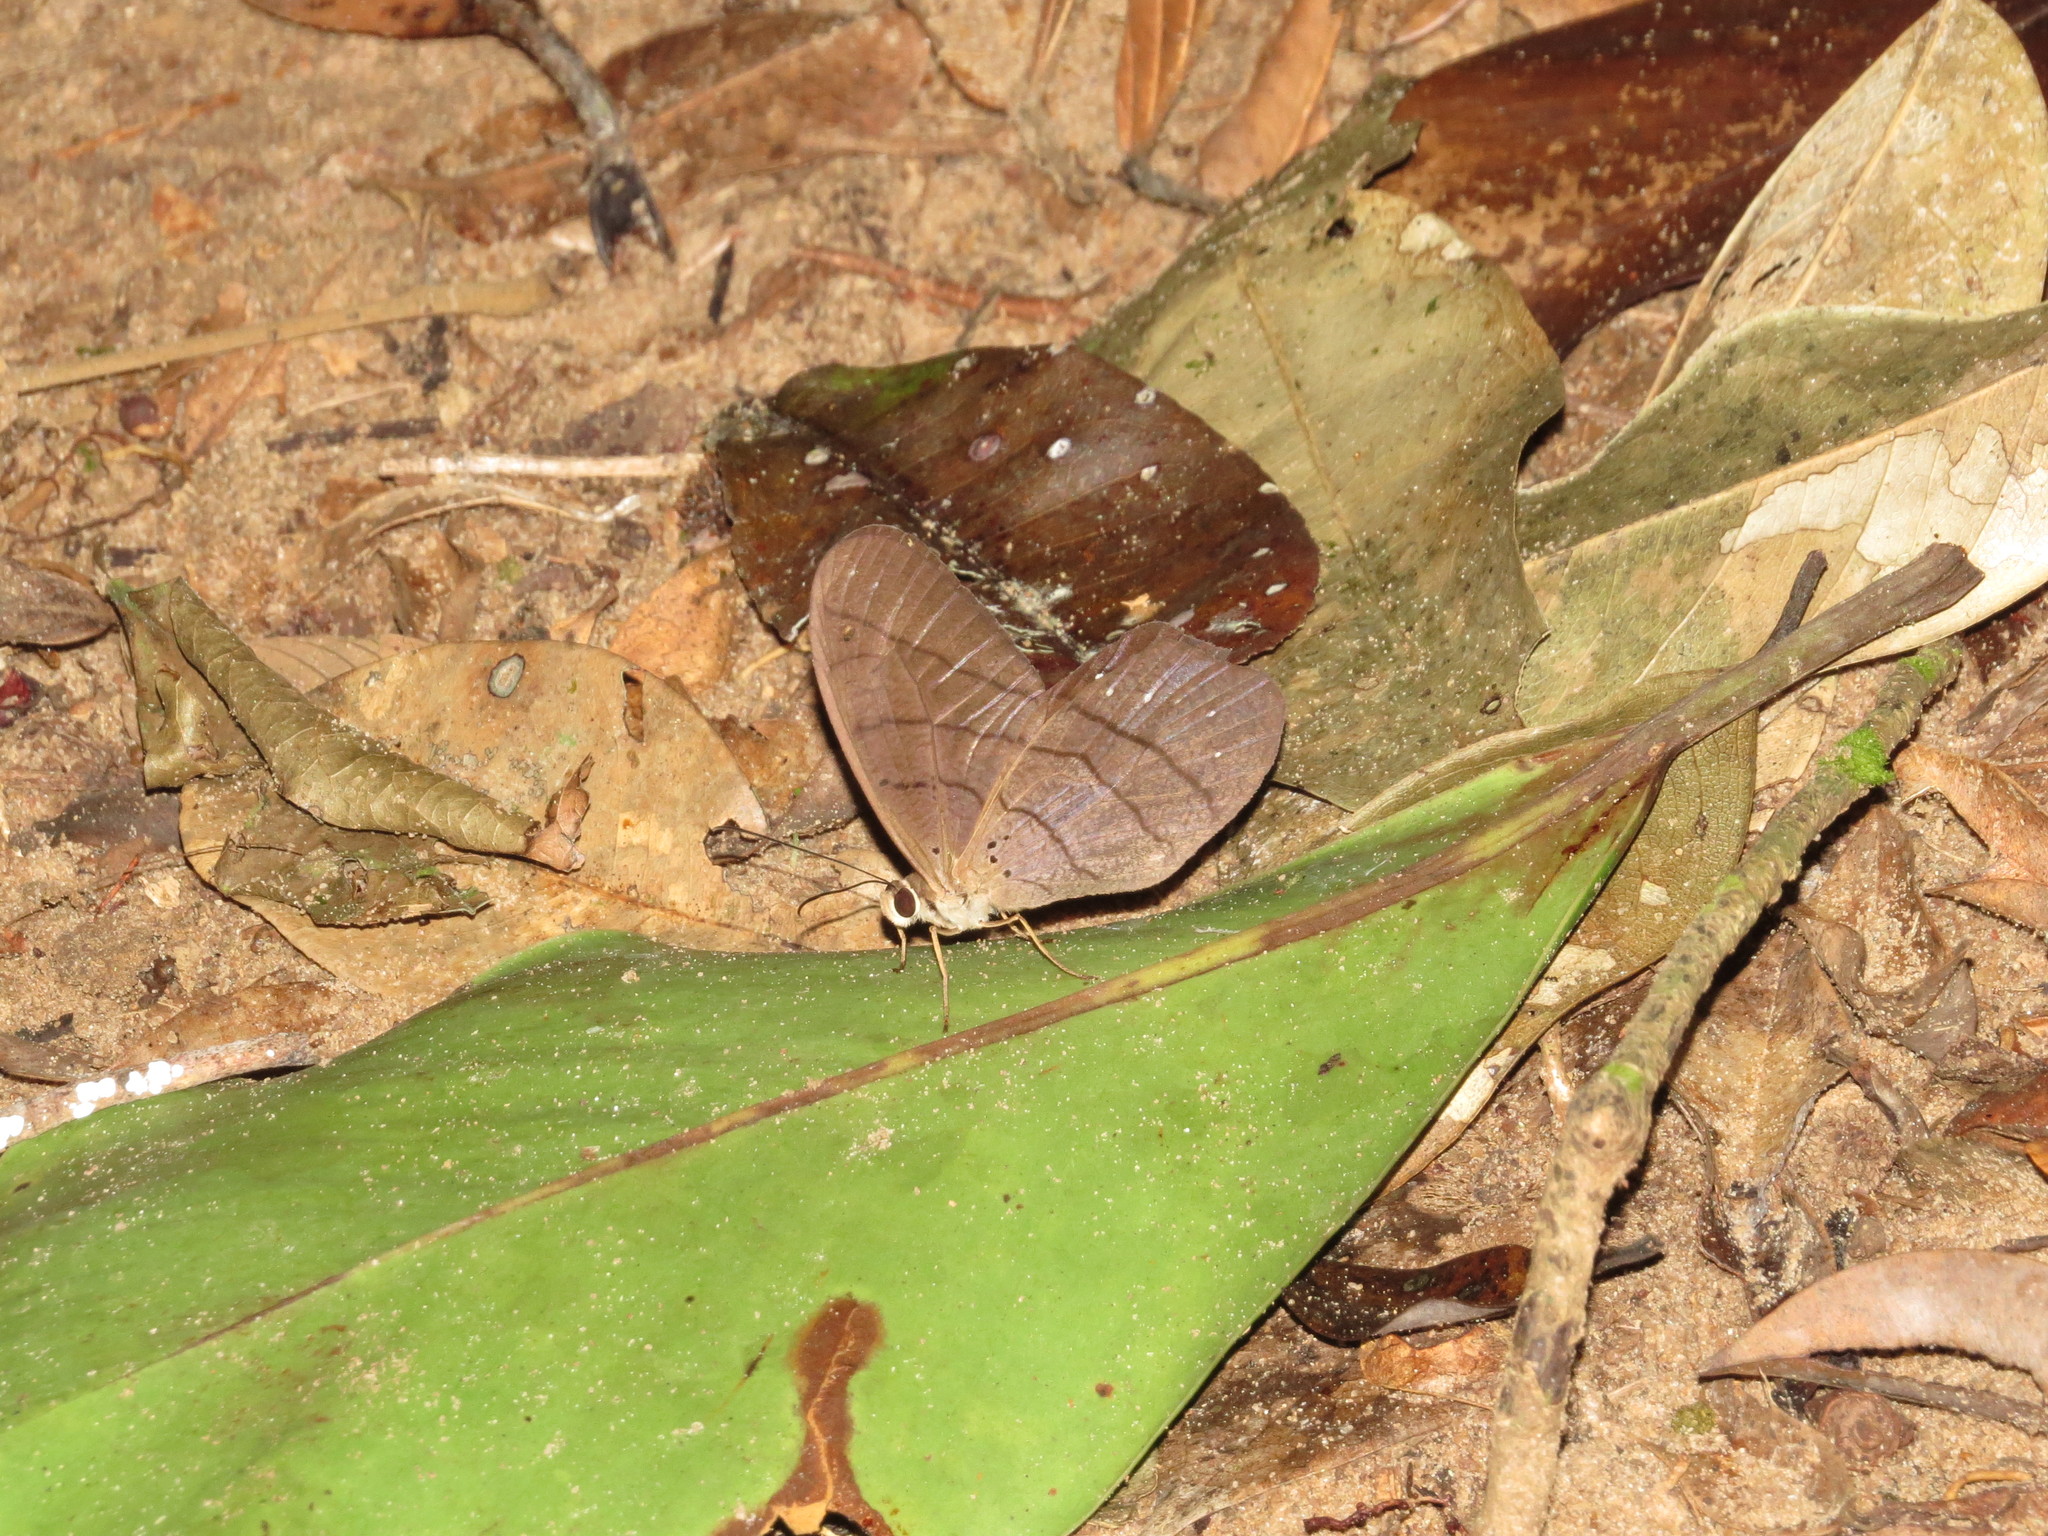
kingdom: Animalia
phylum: Arthropoda
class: Insecta
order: Lepidoptera
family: Nymphalidae
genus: Pierella
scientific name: Pierella rhea
